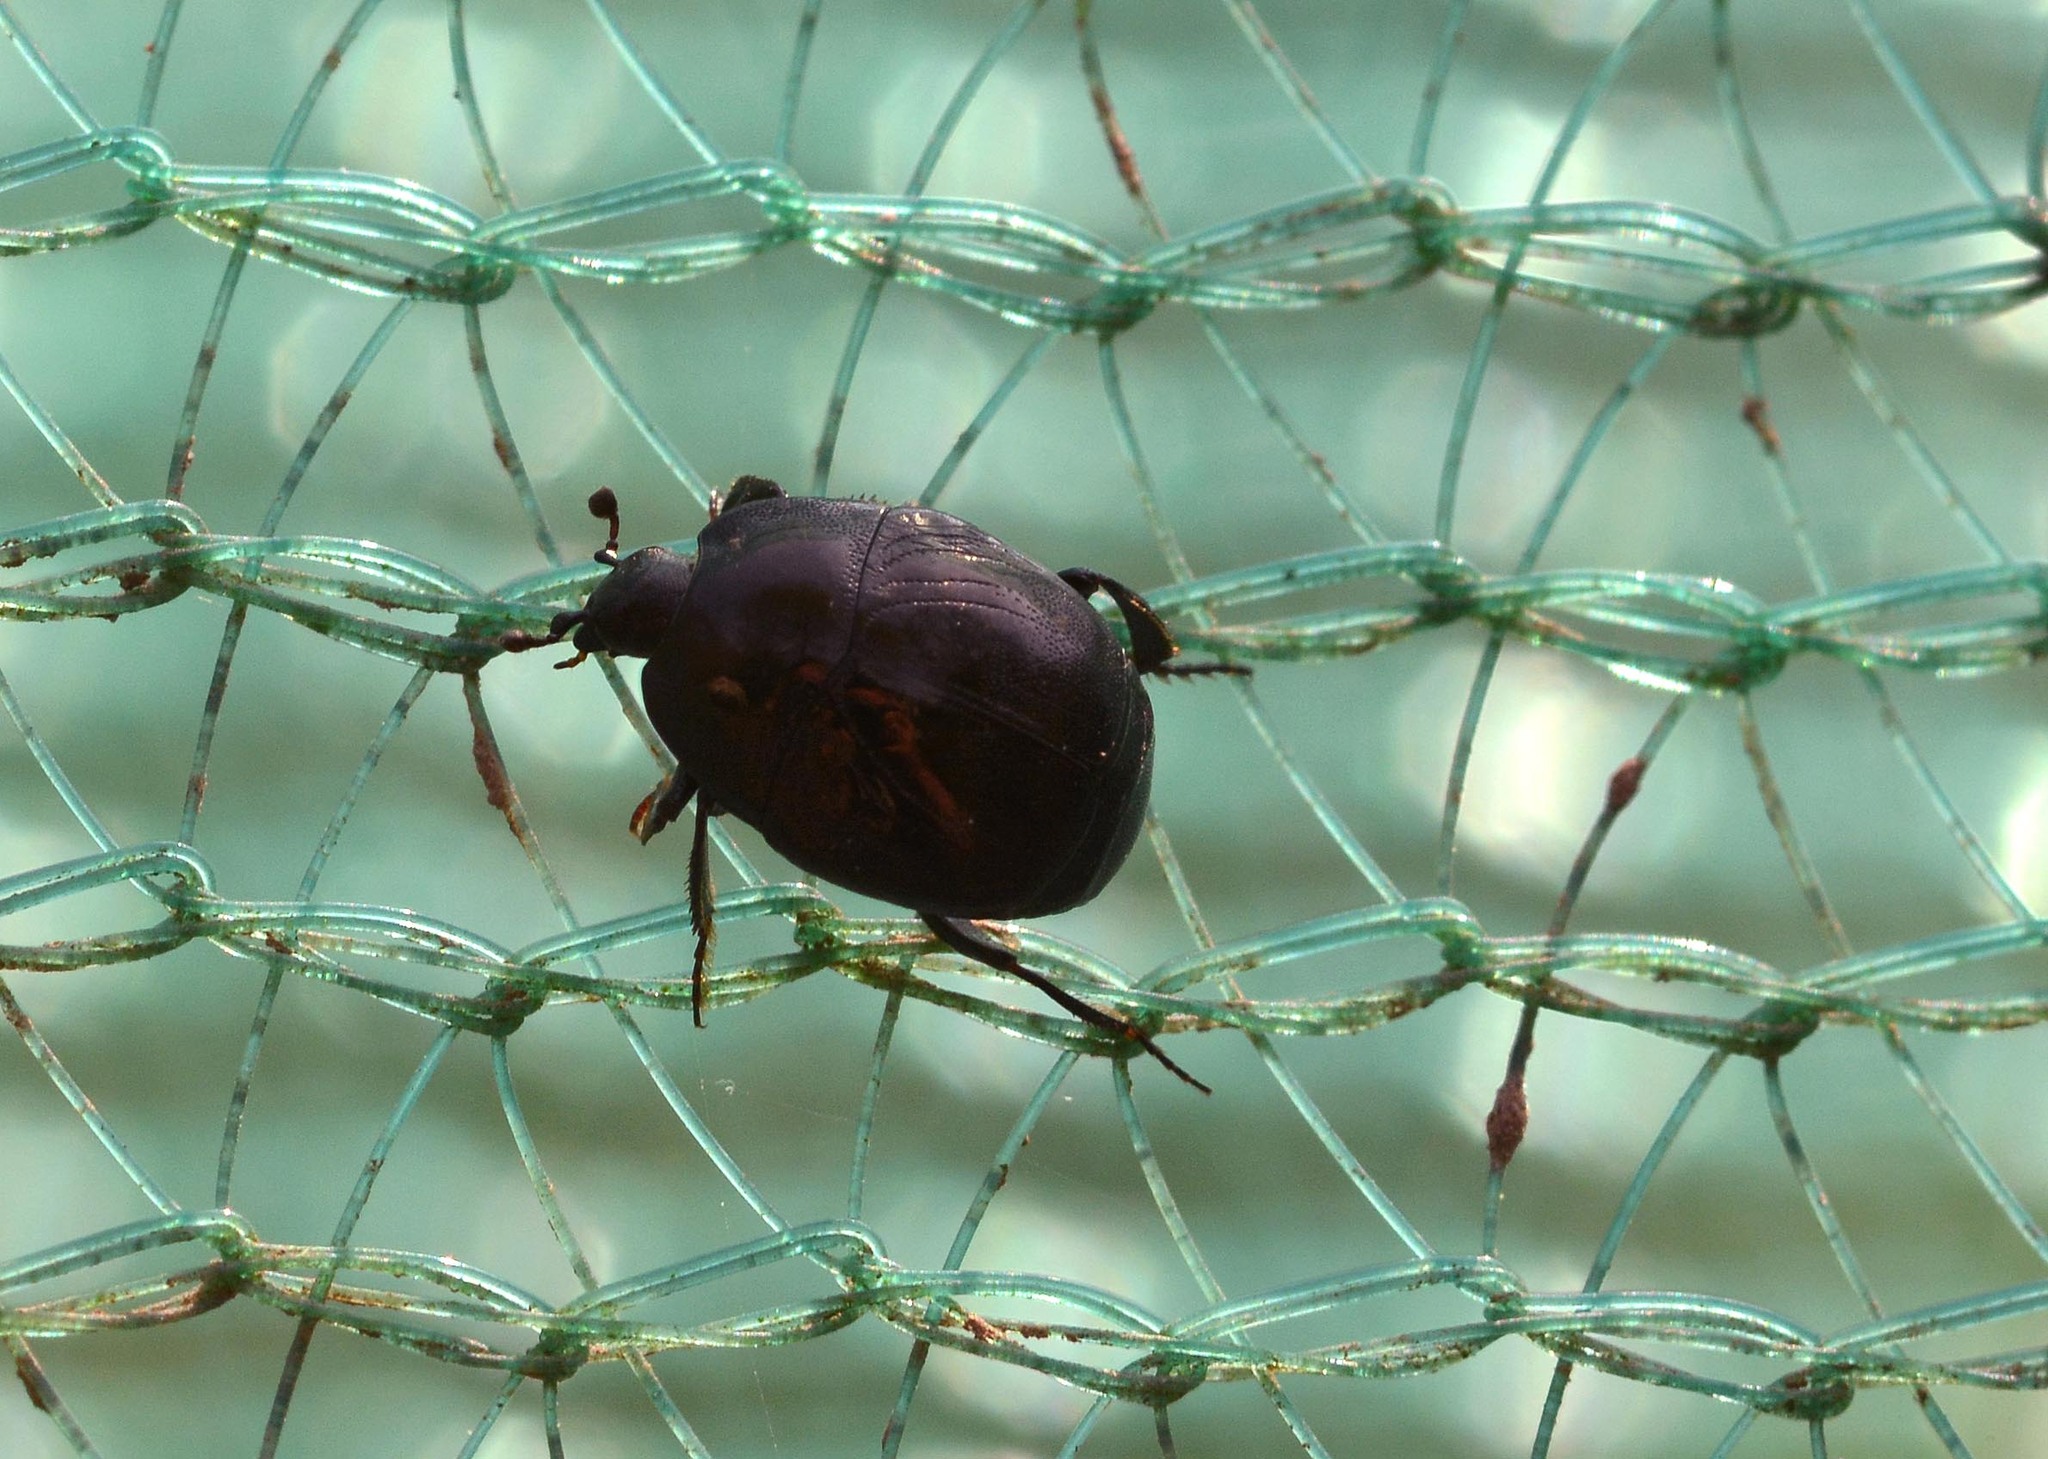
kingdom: Animalia
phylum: Arthropoda
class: Insecta
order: Coleoptera
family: Histeridae
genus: Saprinus
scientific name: Saprinus semistriatus
